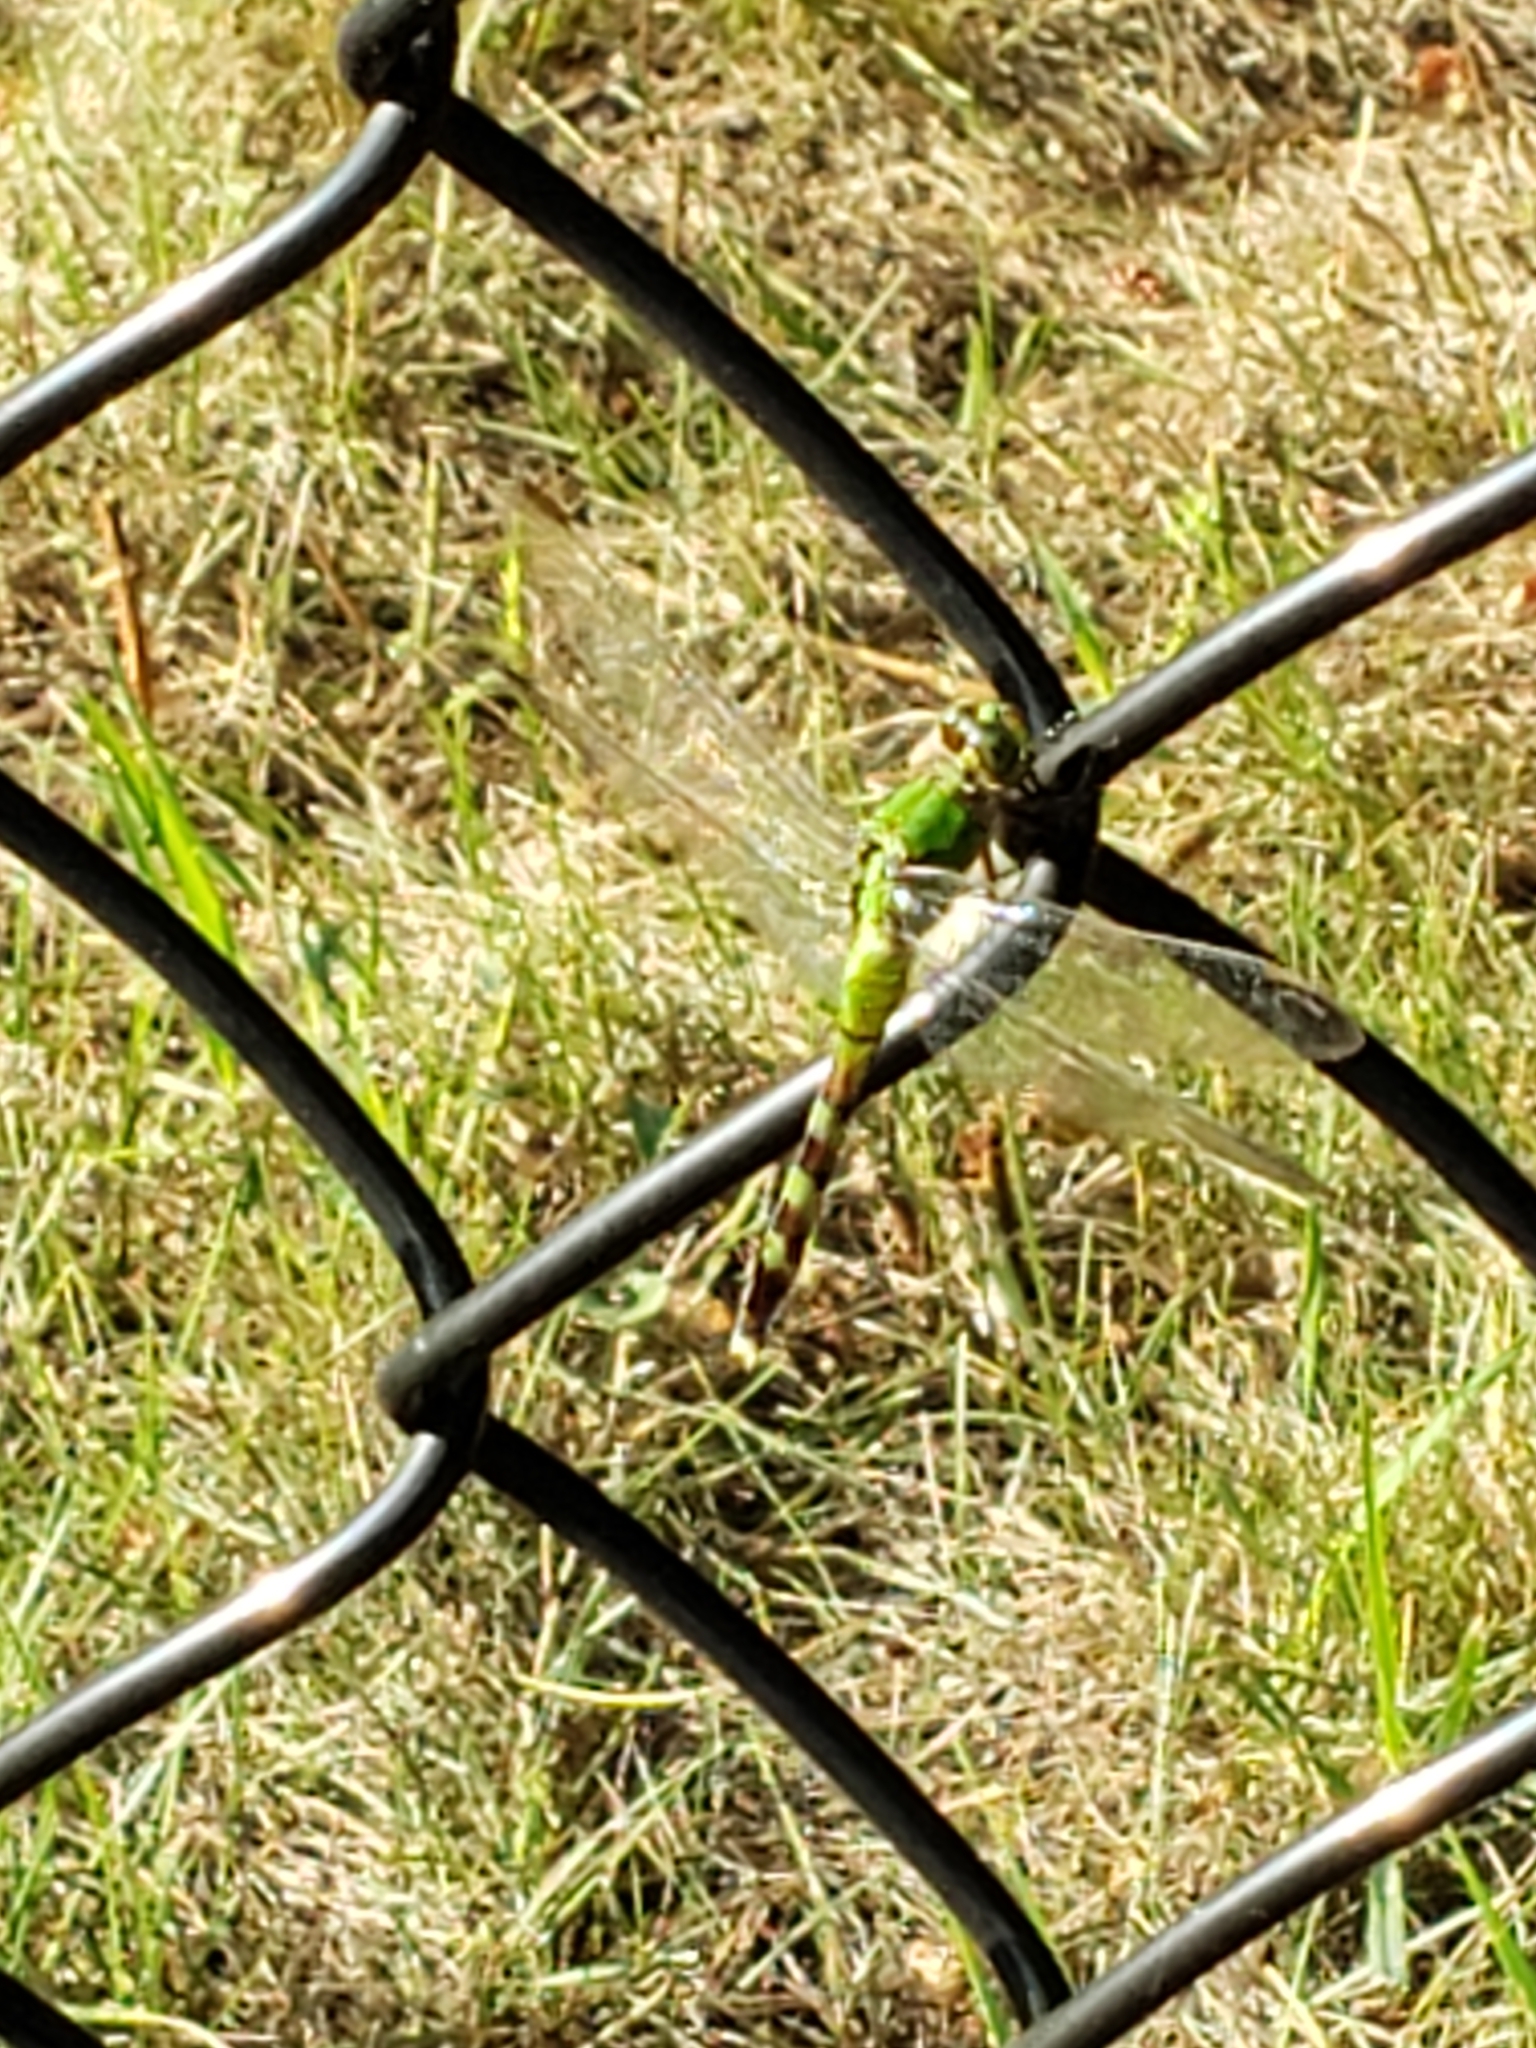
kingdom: Animalia
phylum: Arthropoda
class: Insecta
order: Odonata
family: Libellulidae
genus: Erythemis
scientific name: Erythemis simplicicollis
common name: Eastern pondhawk
